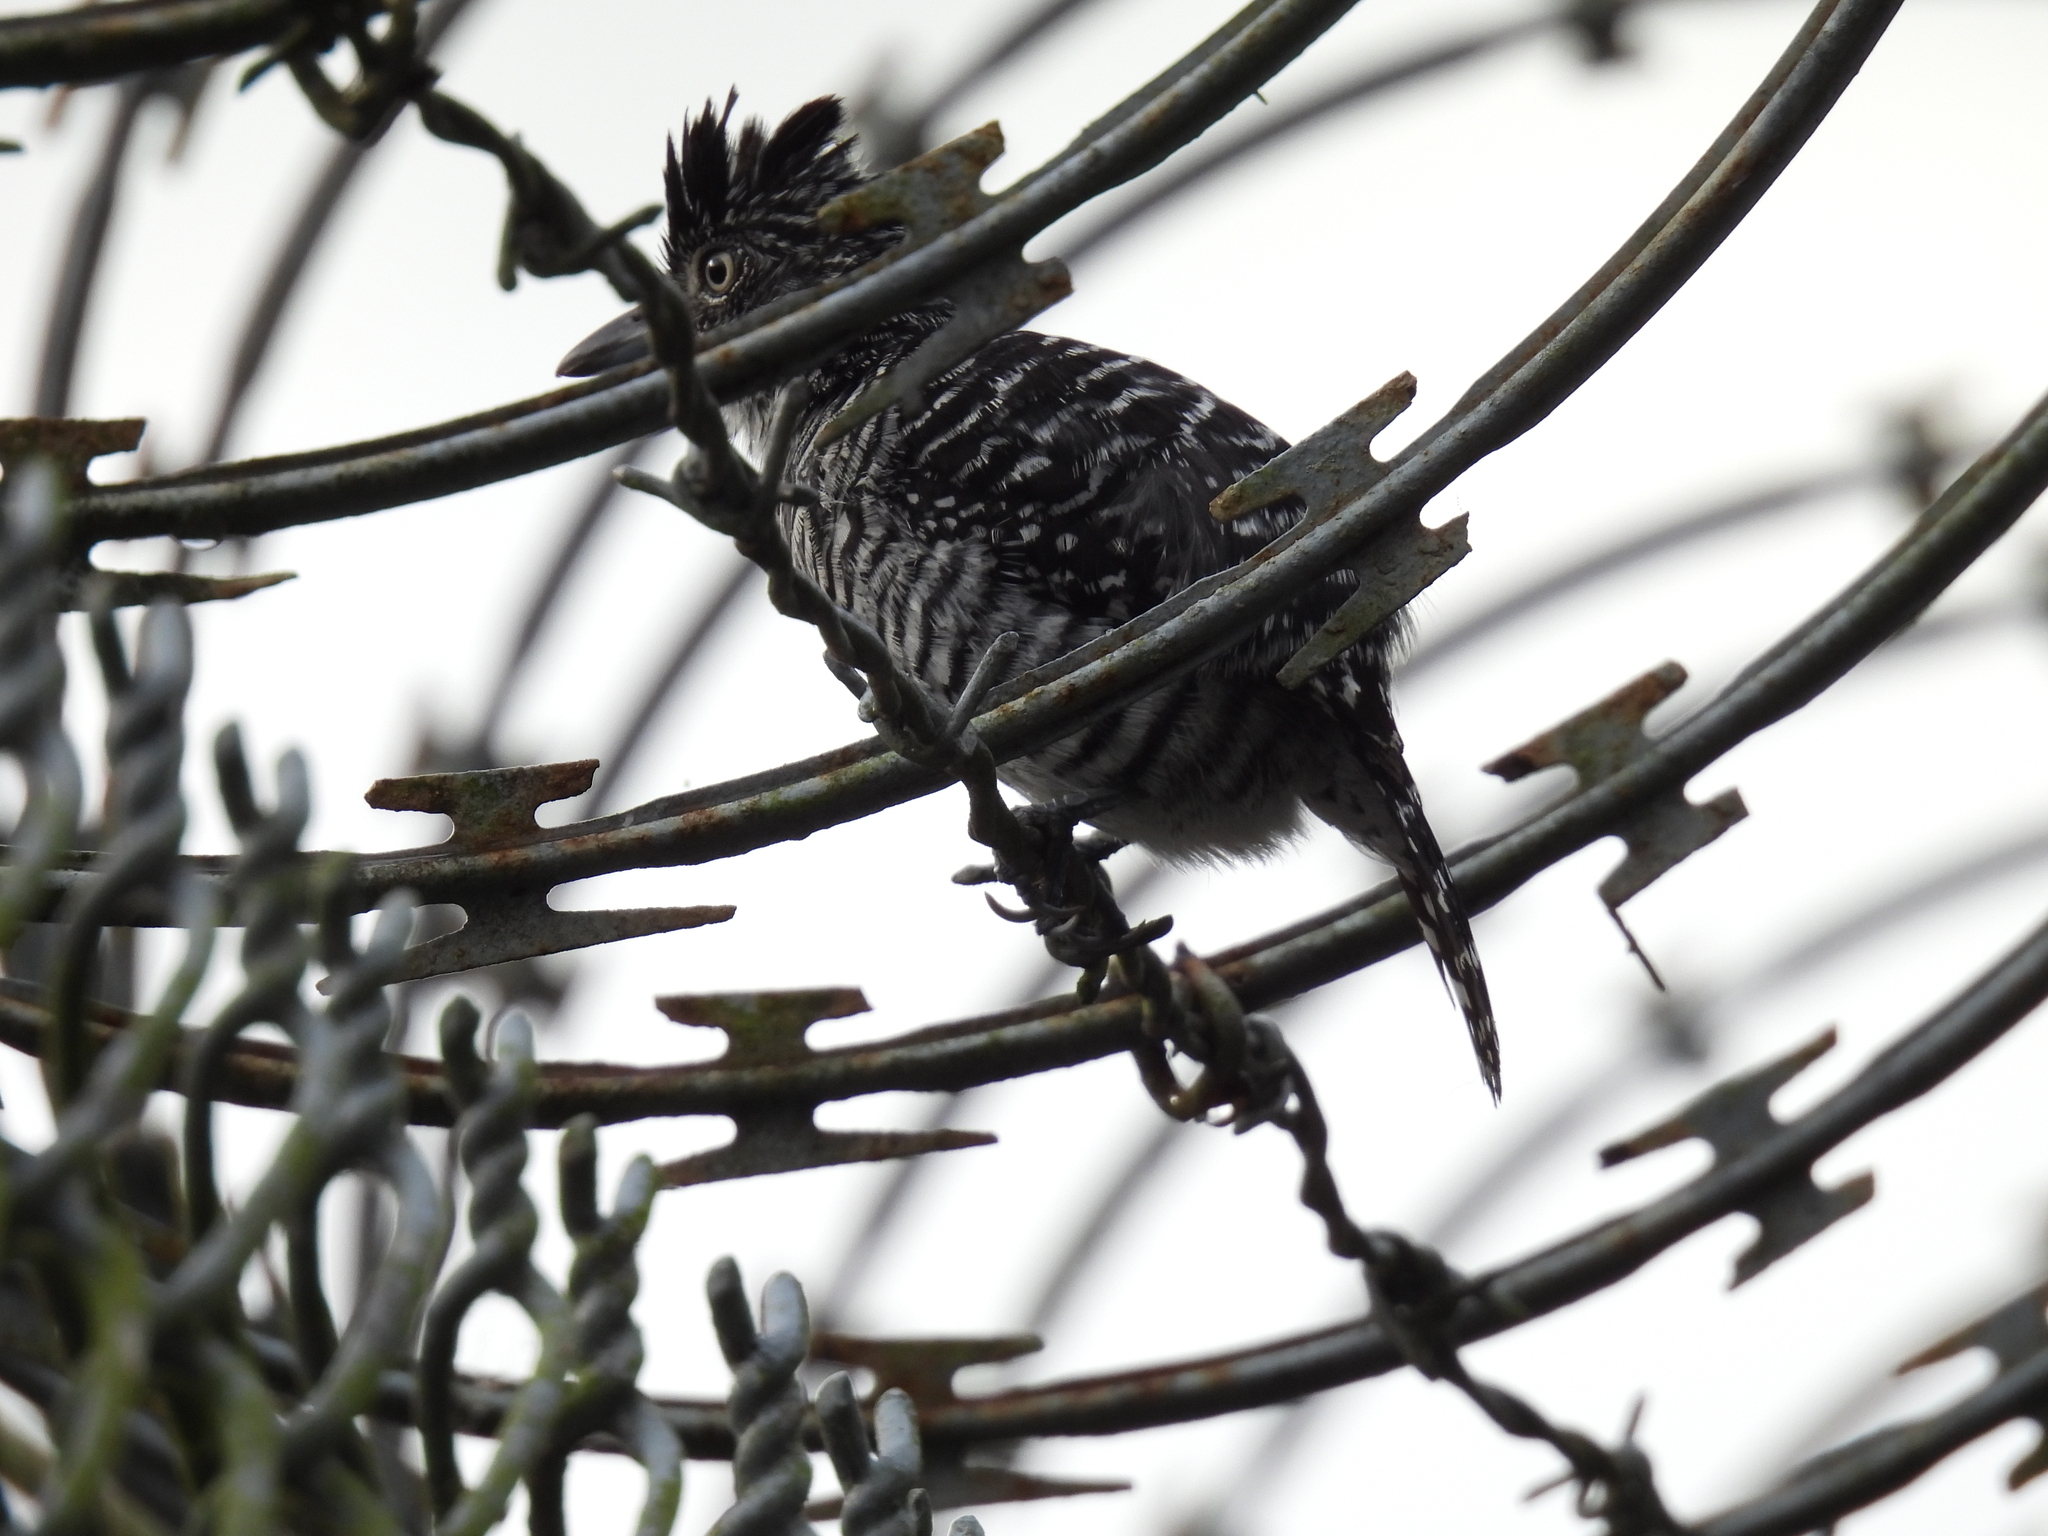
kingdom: Animalia
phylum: Chordata
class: Aves
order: Passeriformes
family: Thamnophilidae
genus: Thamnophilus
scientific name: Thamnophilus doliatus
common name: Barred antshrike
